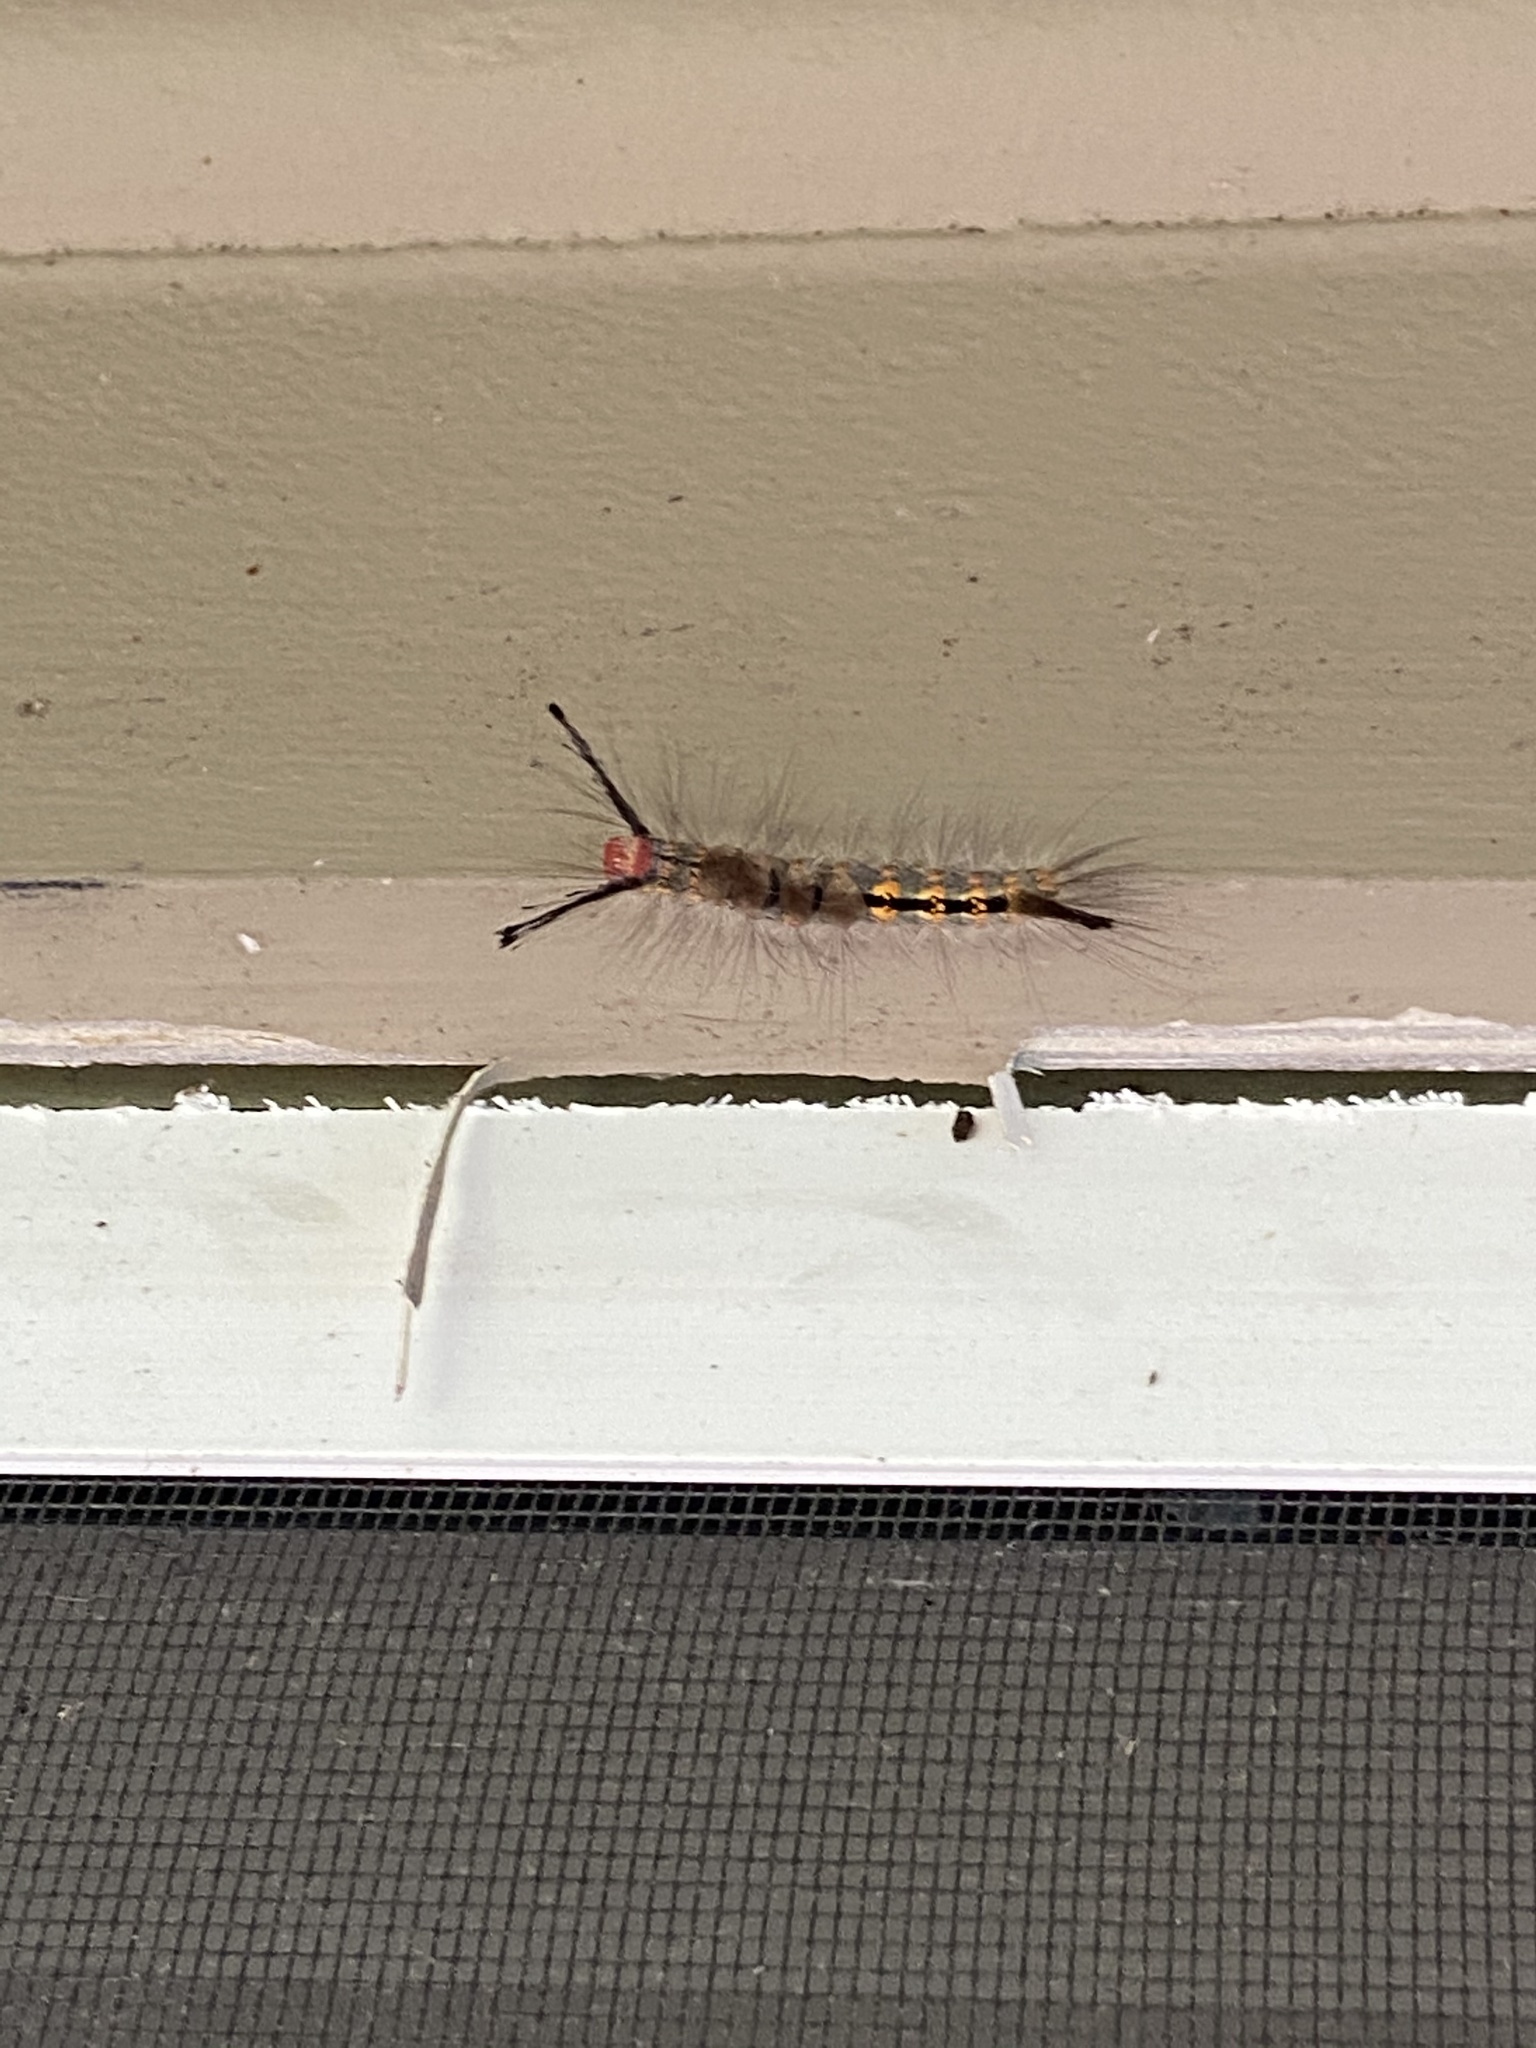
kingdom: Animalia
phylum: Arthropoda
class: Insecta
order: Lepidoptera
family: Erebidae
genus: Orgyia
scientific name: Orgyia detrita
